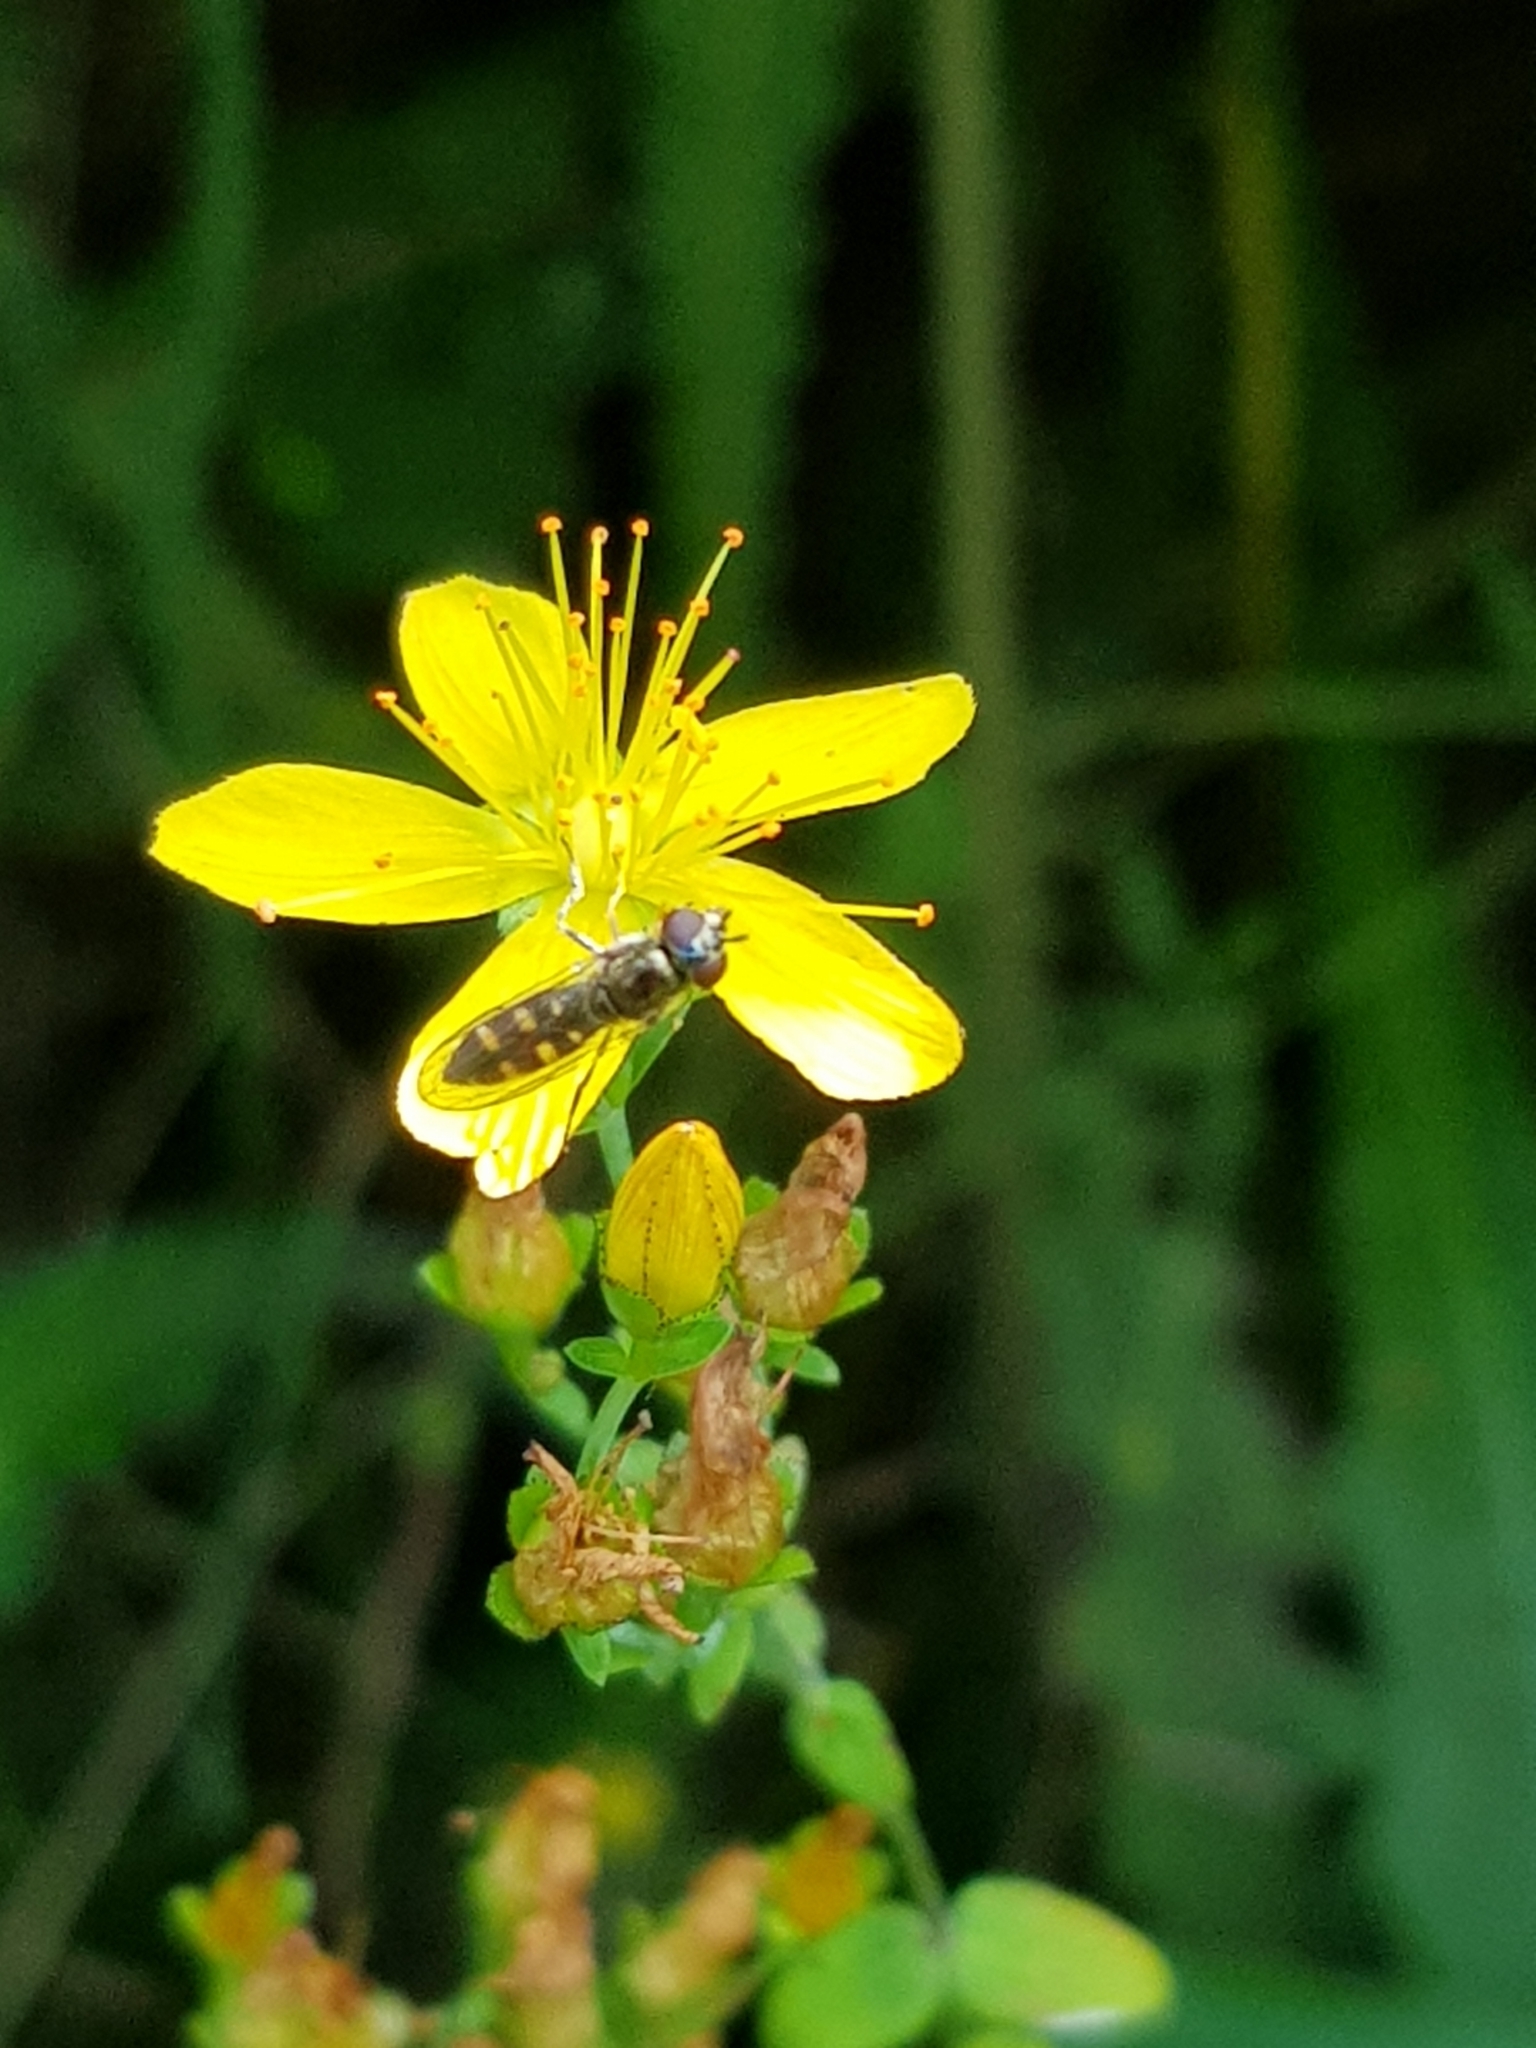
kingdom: Animalia
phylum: Arthropoda
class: Insecta
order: Diptera
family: Syrphidae
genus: Platycheirus
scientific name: Platycheirus
